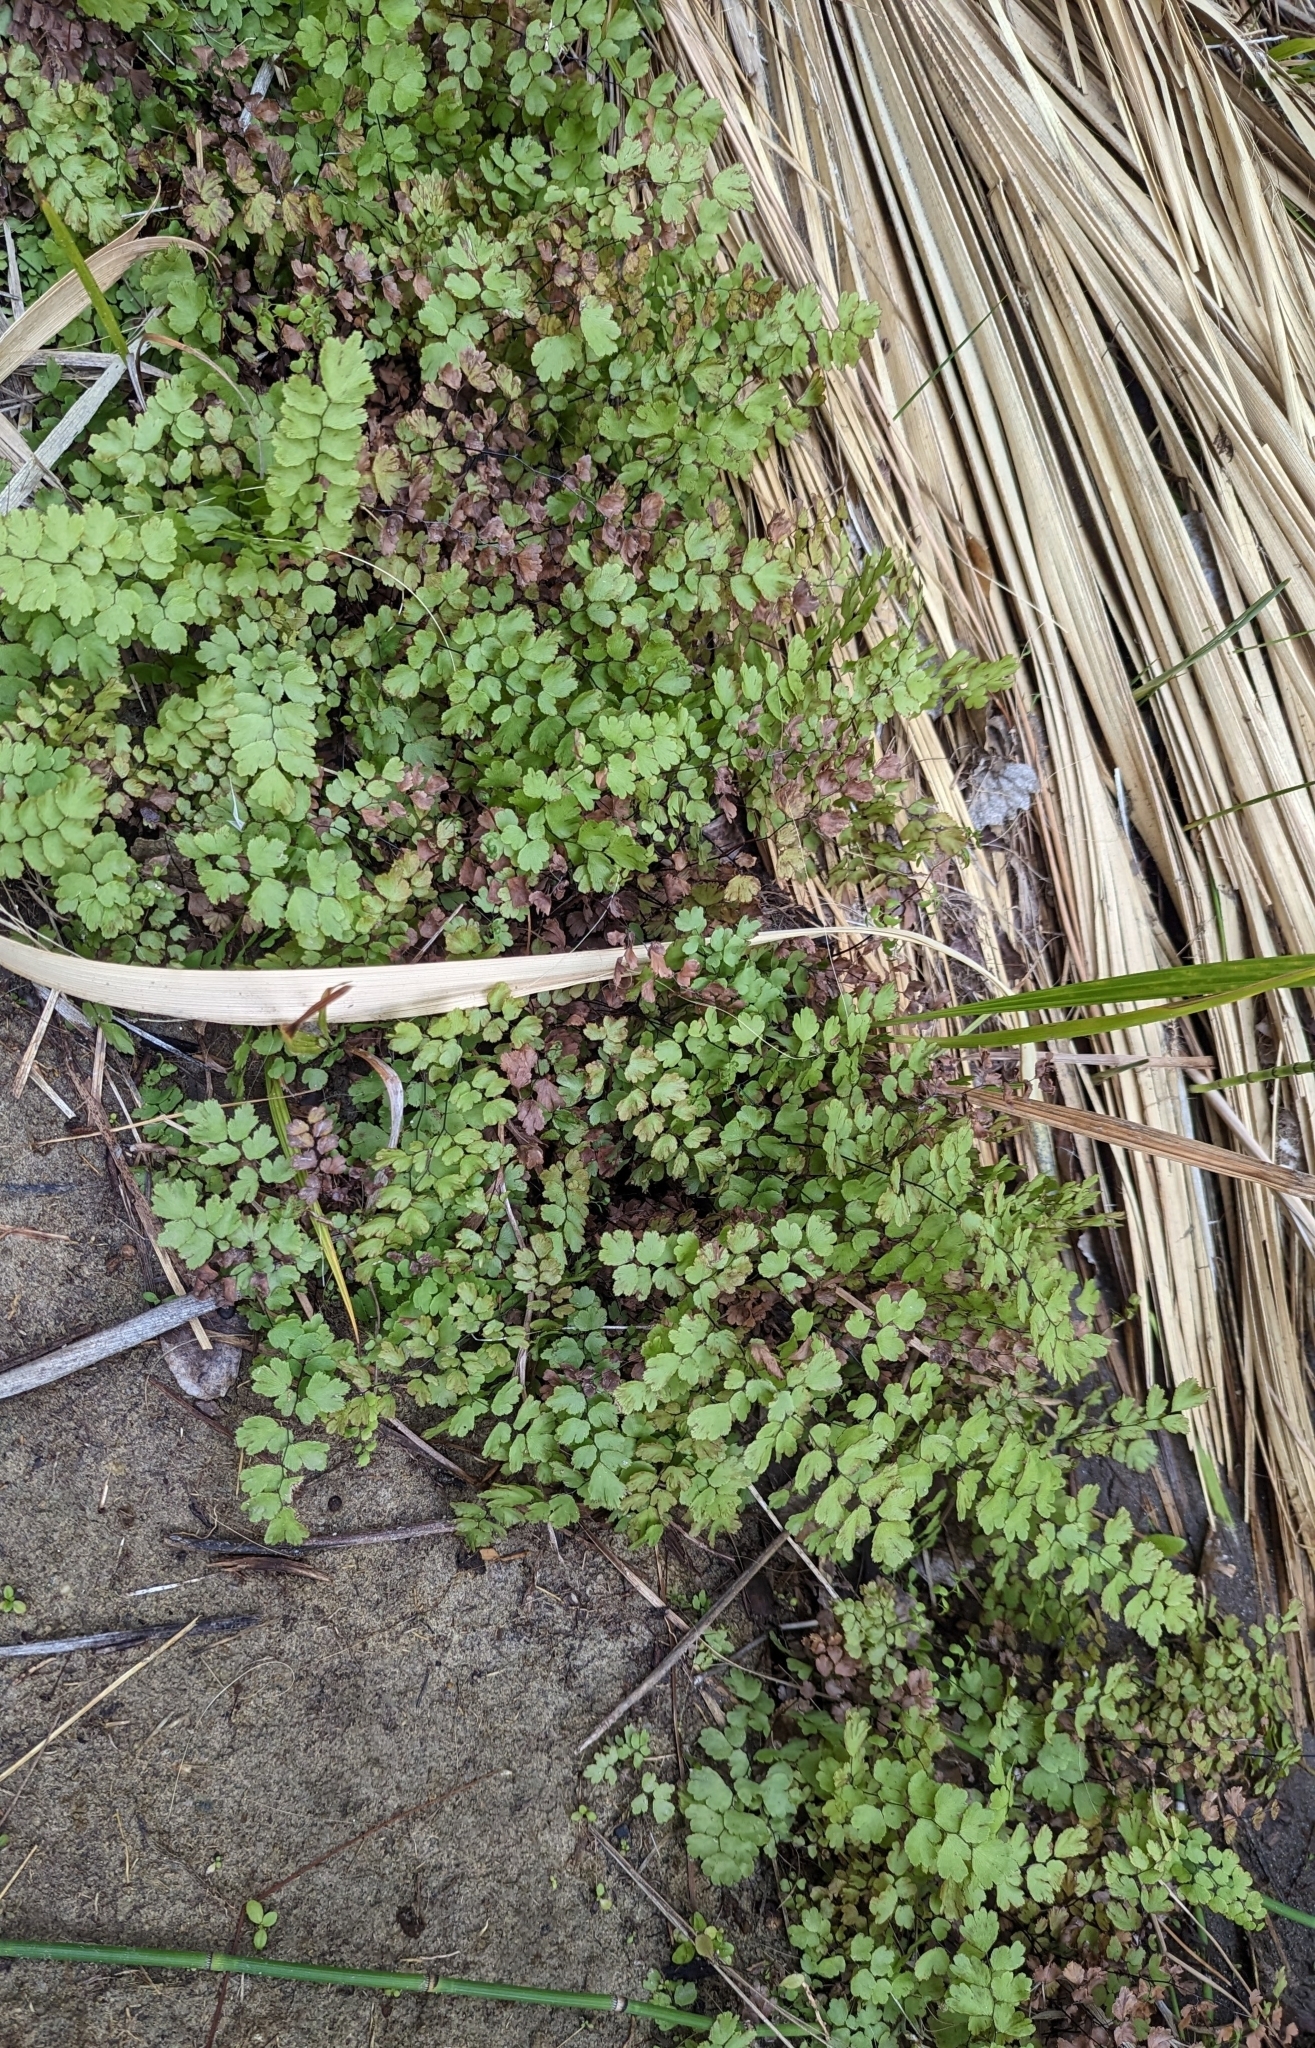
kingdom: Plantae
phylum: Tracheophyta
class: Polypodiopsida
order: Polypodiales
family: Pteridaceae
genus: Adiantum
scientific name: Adiantum capillus-veneris
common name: Maidenhair fern
